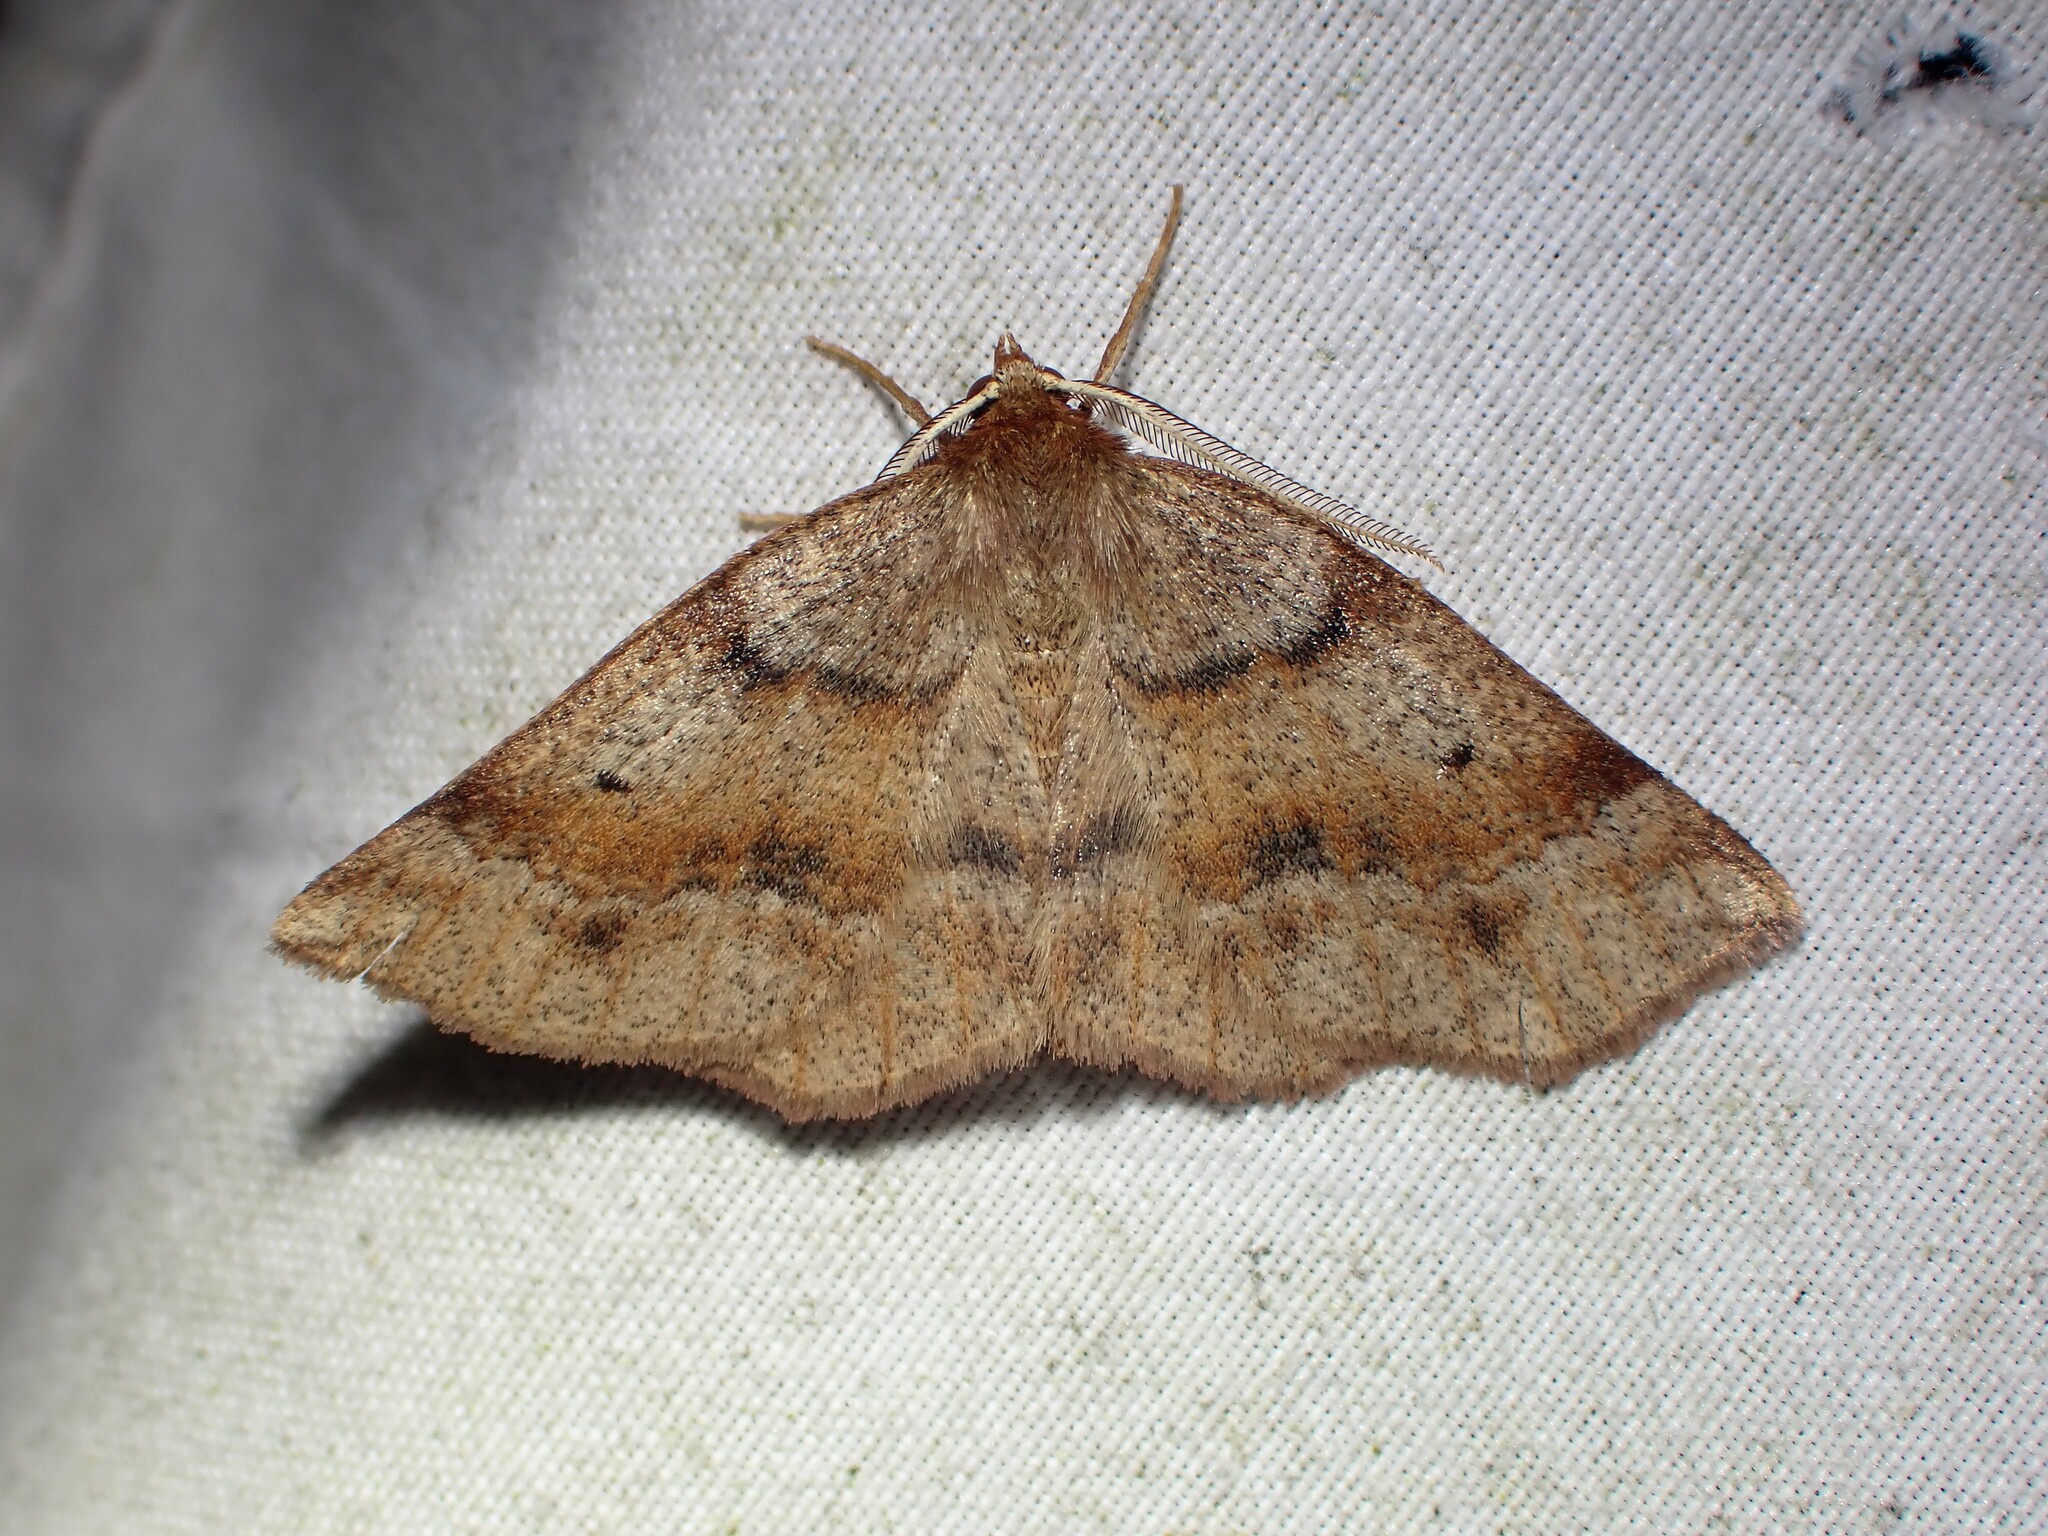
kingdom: Animalia
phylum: Arthropoda
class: Insecta
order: Lepidoptera
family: Geometridae
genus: Metarranthis
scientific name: Metarranthis duaria
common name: Ruddy metarranthis moth
